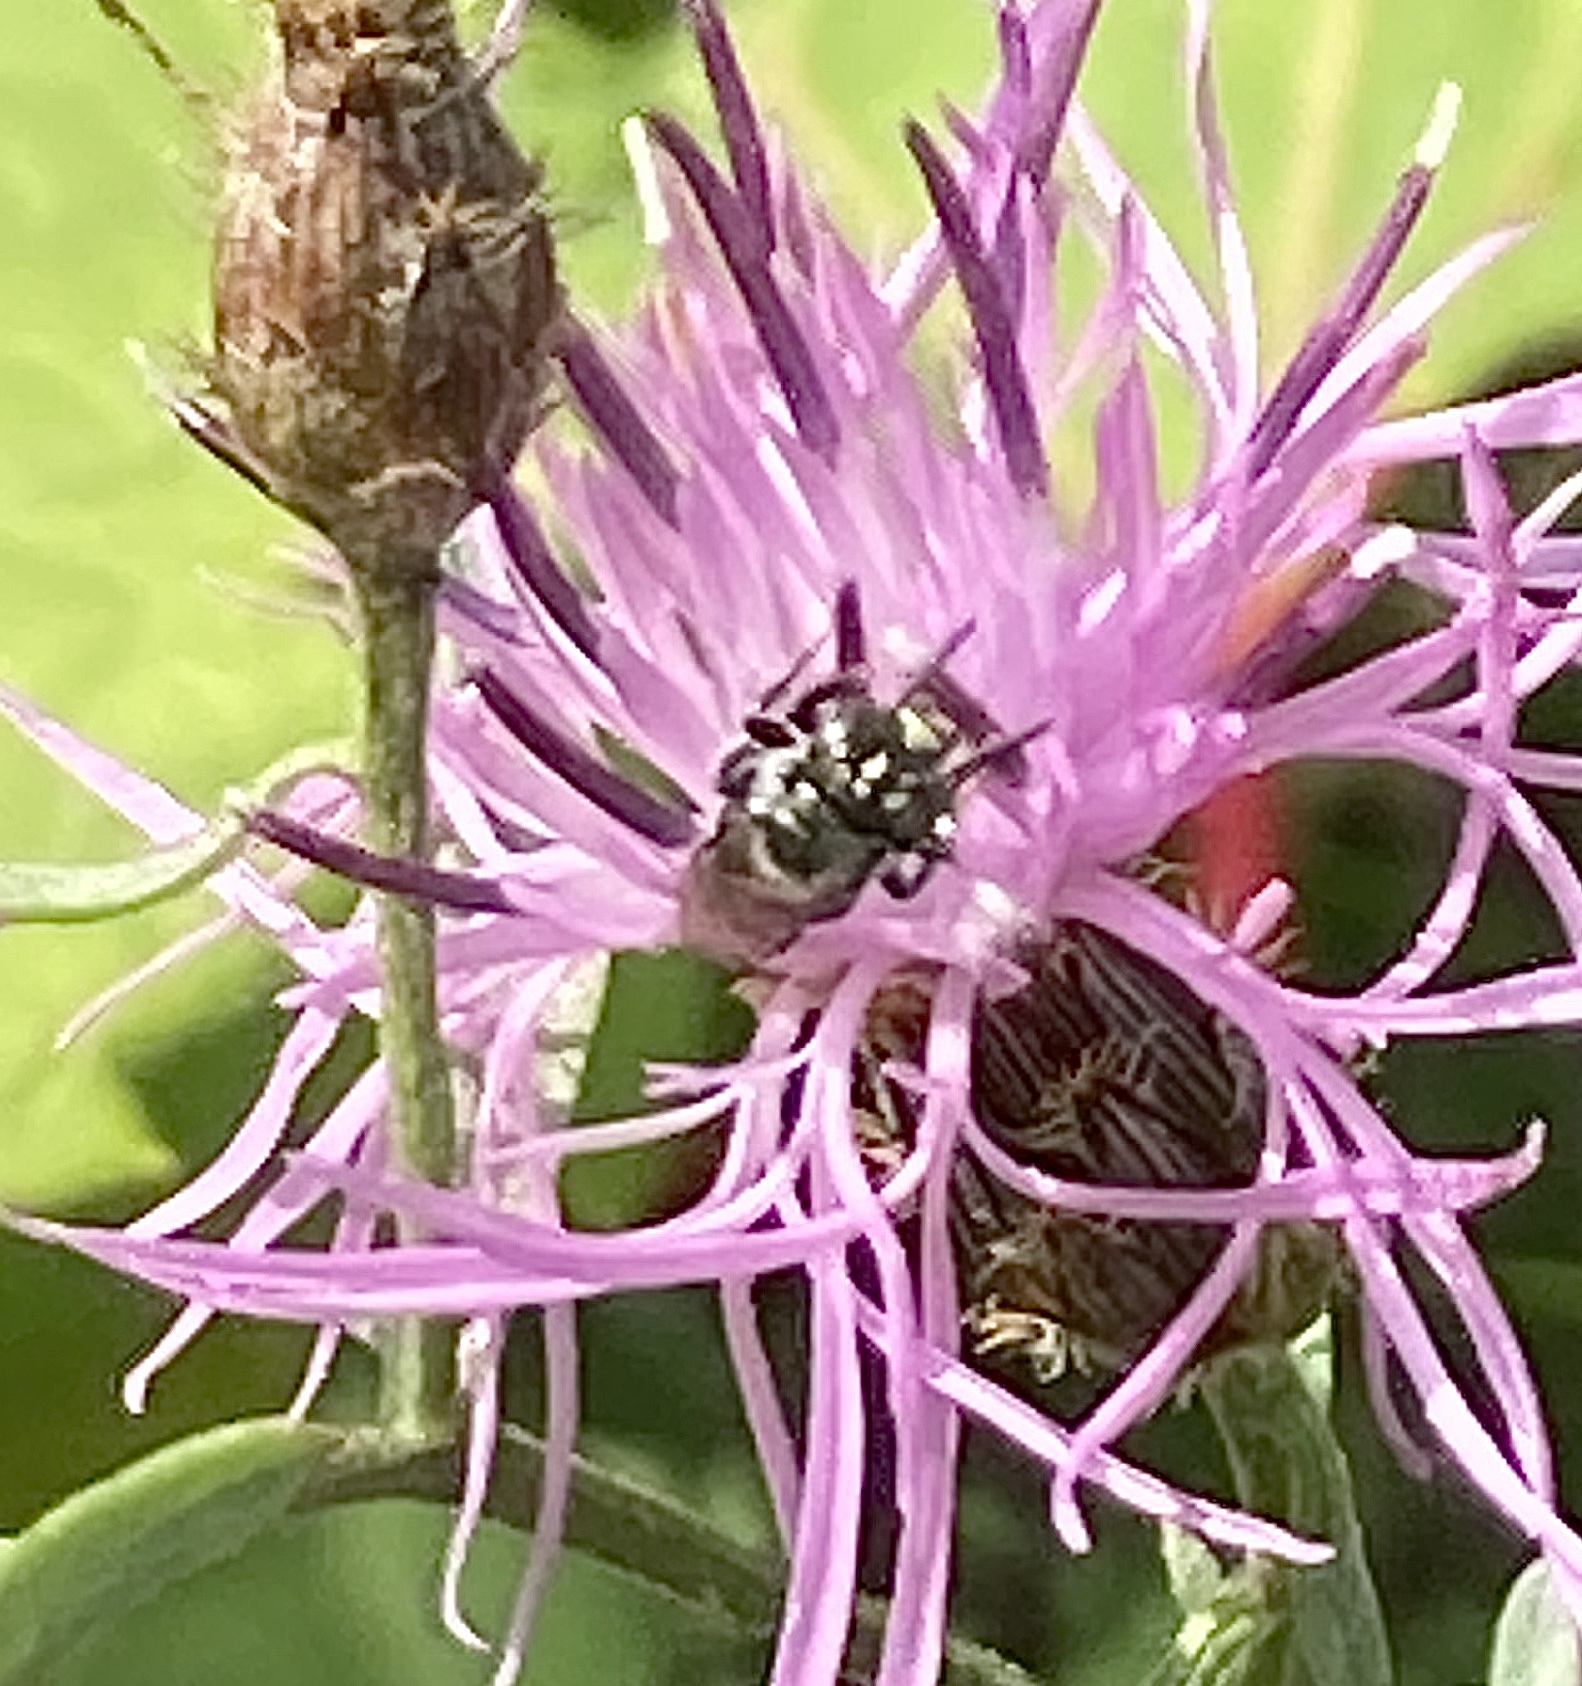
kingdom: Animalia
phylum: Arthropoda
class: Insecta
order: Hymenoptera
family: Apidae
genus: Zadontomerus
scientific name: Zadontomerus
